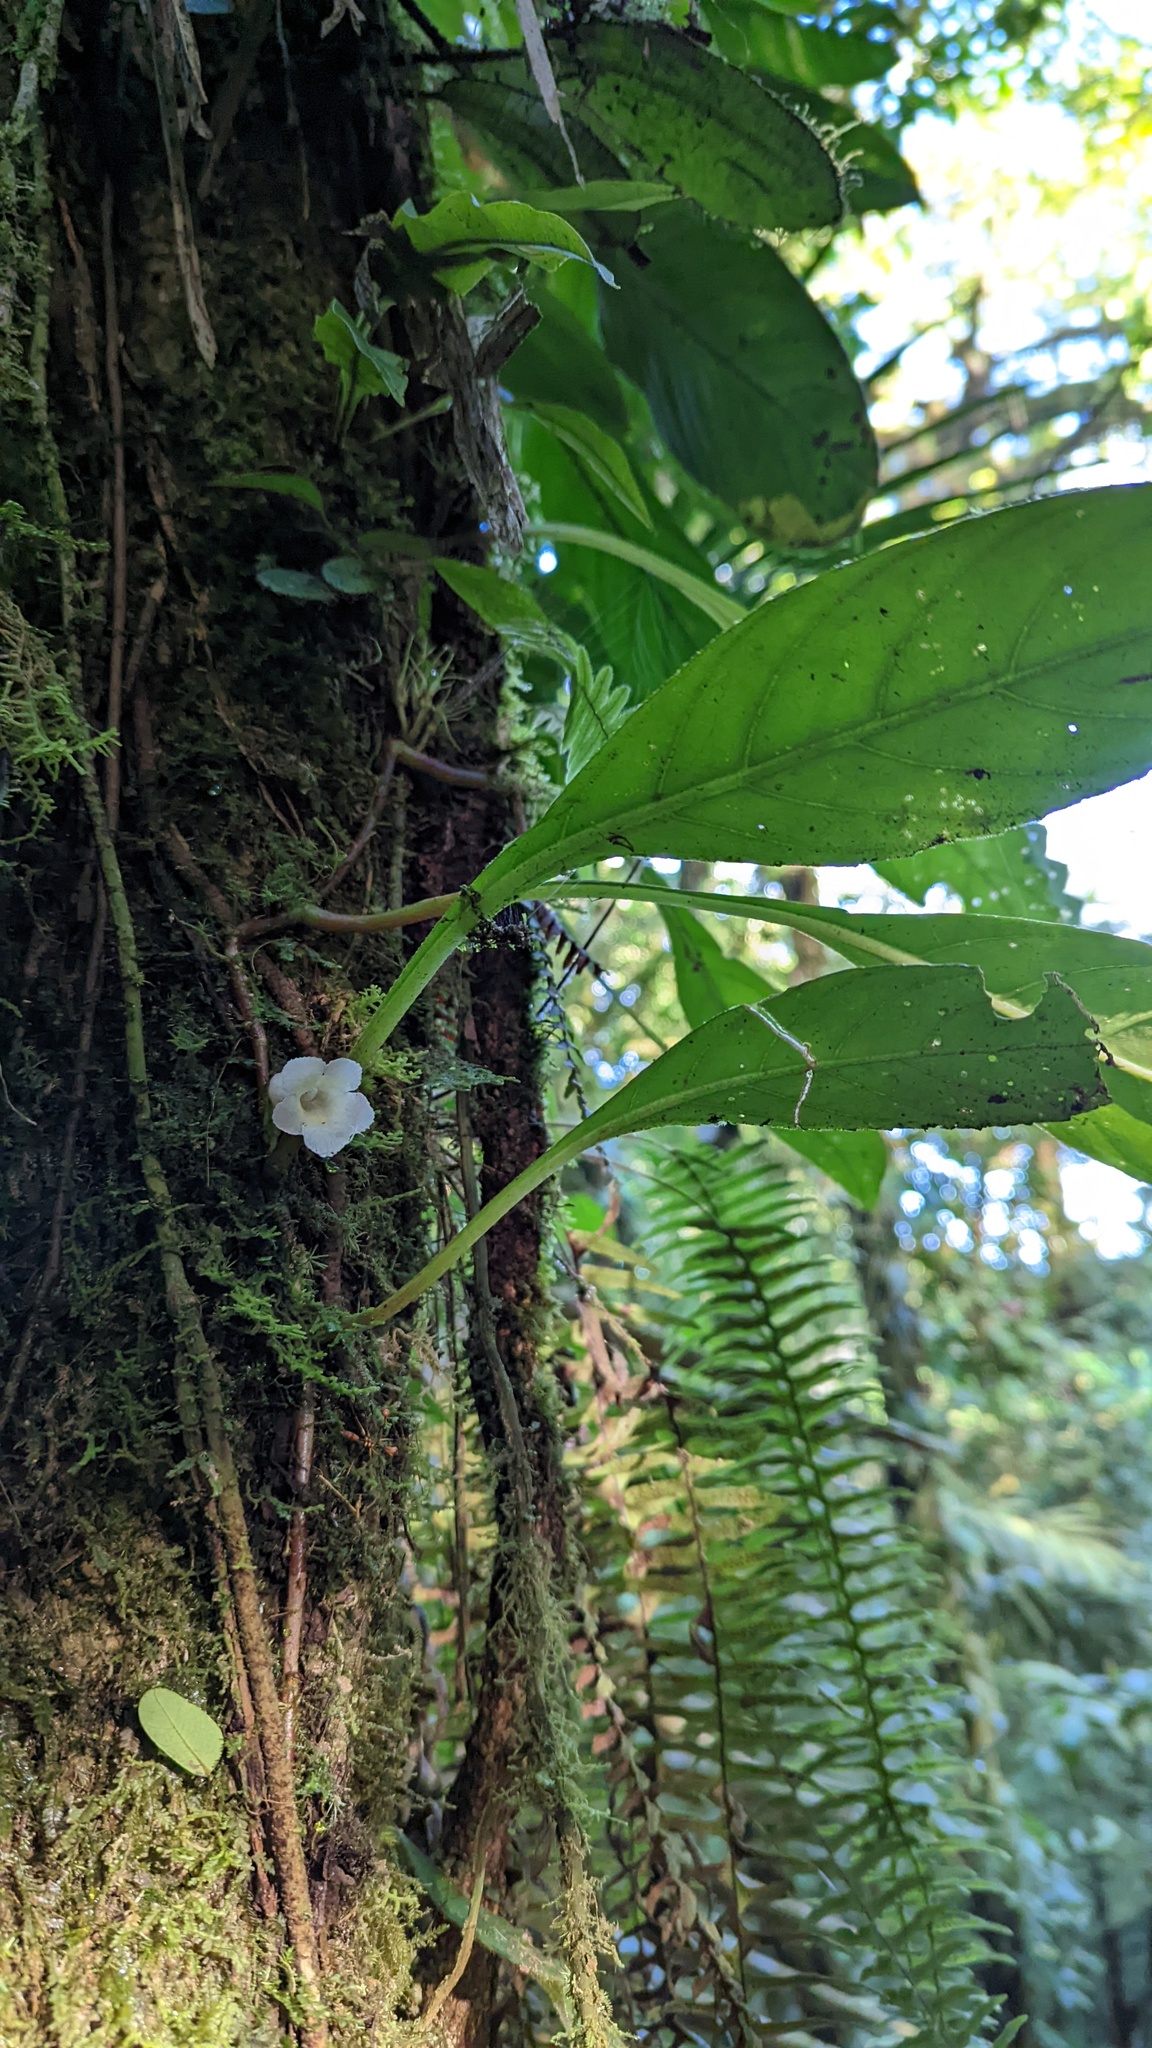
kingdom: Plantae
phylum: Tracheophyta
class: Magnoliopsida
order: Lamiales
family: Gesneriaceae
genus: Paradrymonia
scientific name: Paradrymonia ciliosa
